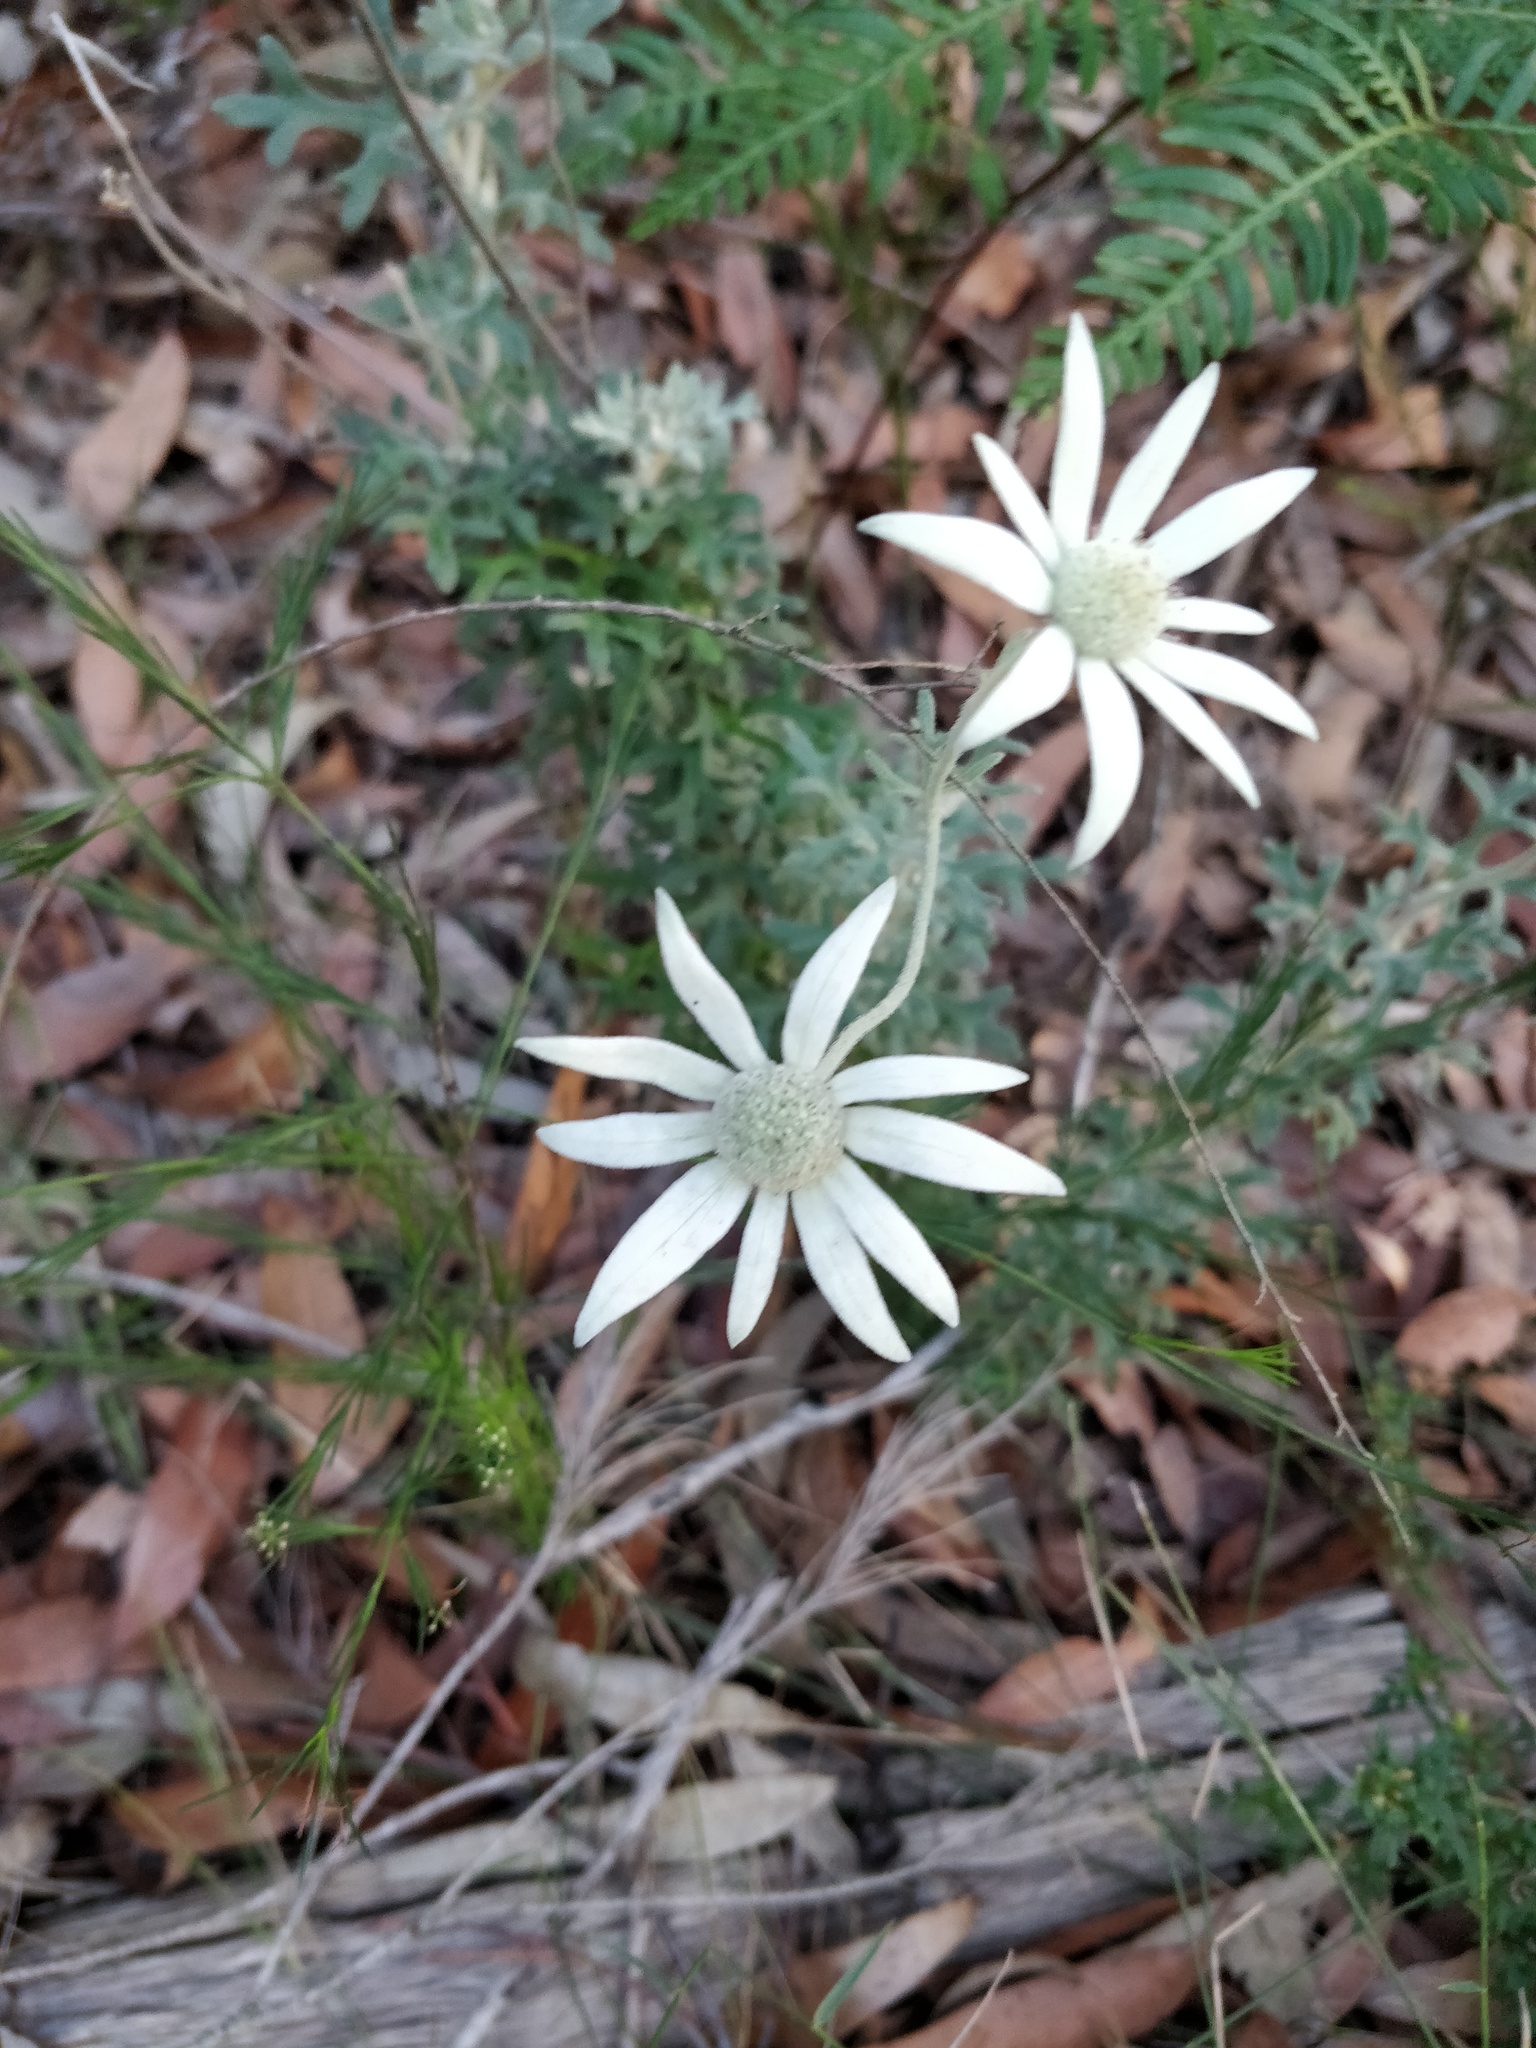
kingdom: Plantae
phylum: Tracheophyta
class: Magnoliopsida
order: Apiales
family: Apiaceae
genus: Actinotus
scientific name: Actinotus helianthi
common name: Flannel-flower
